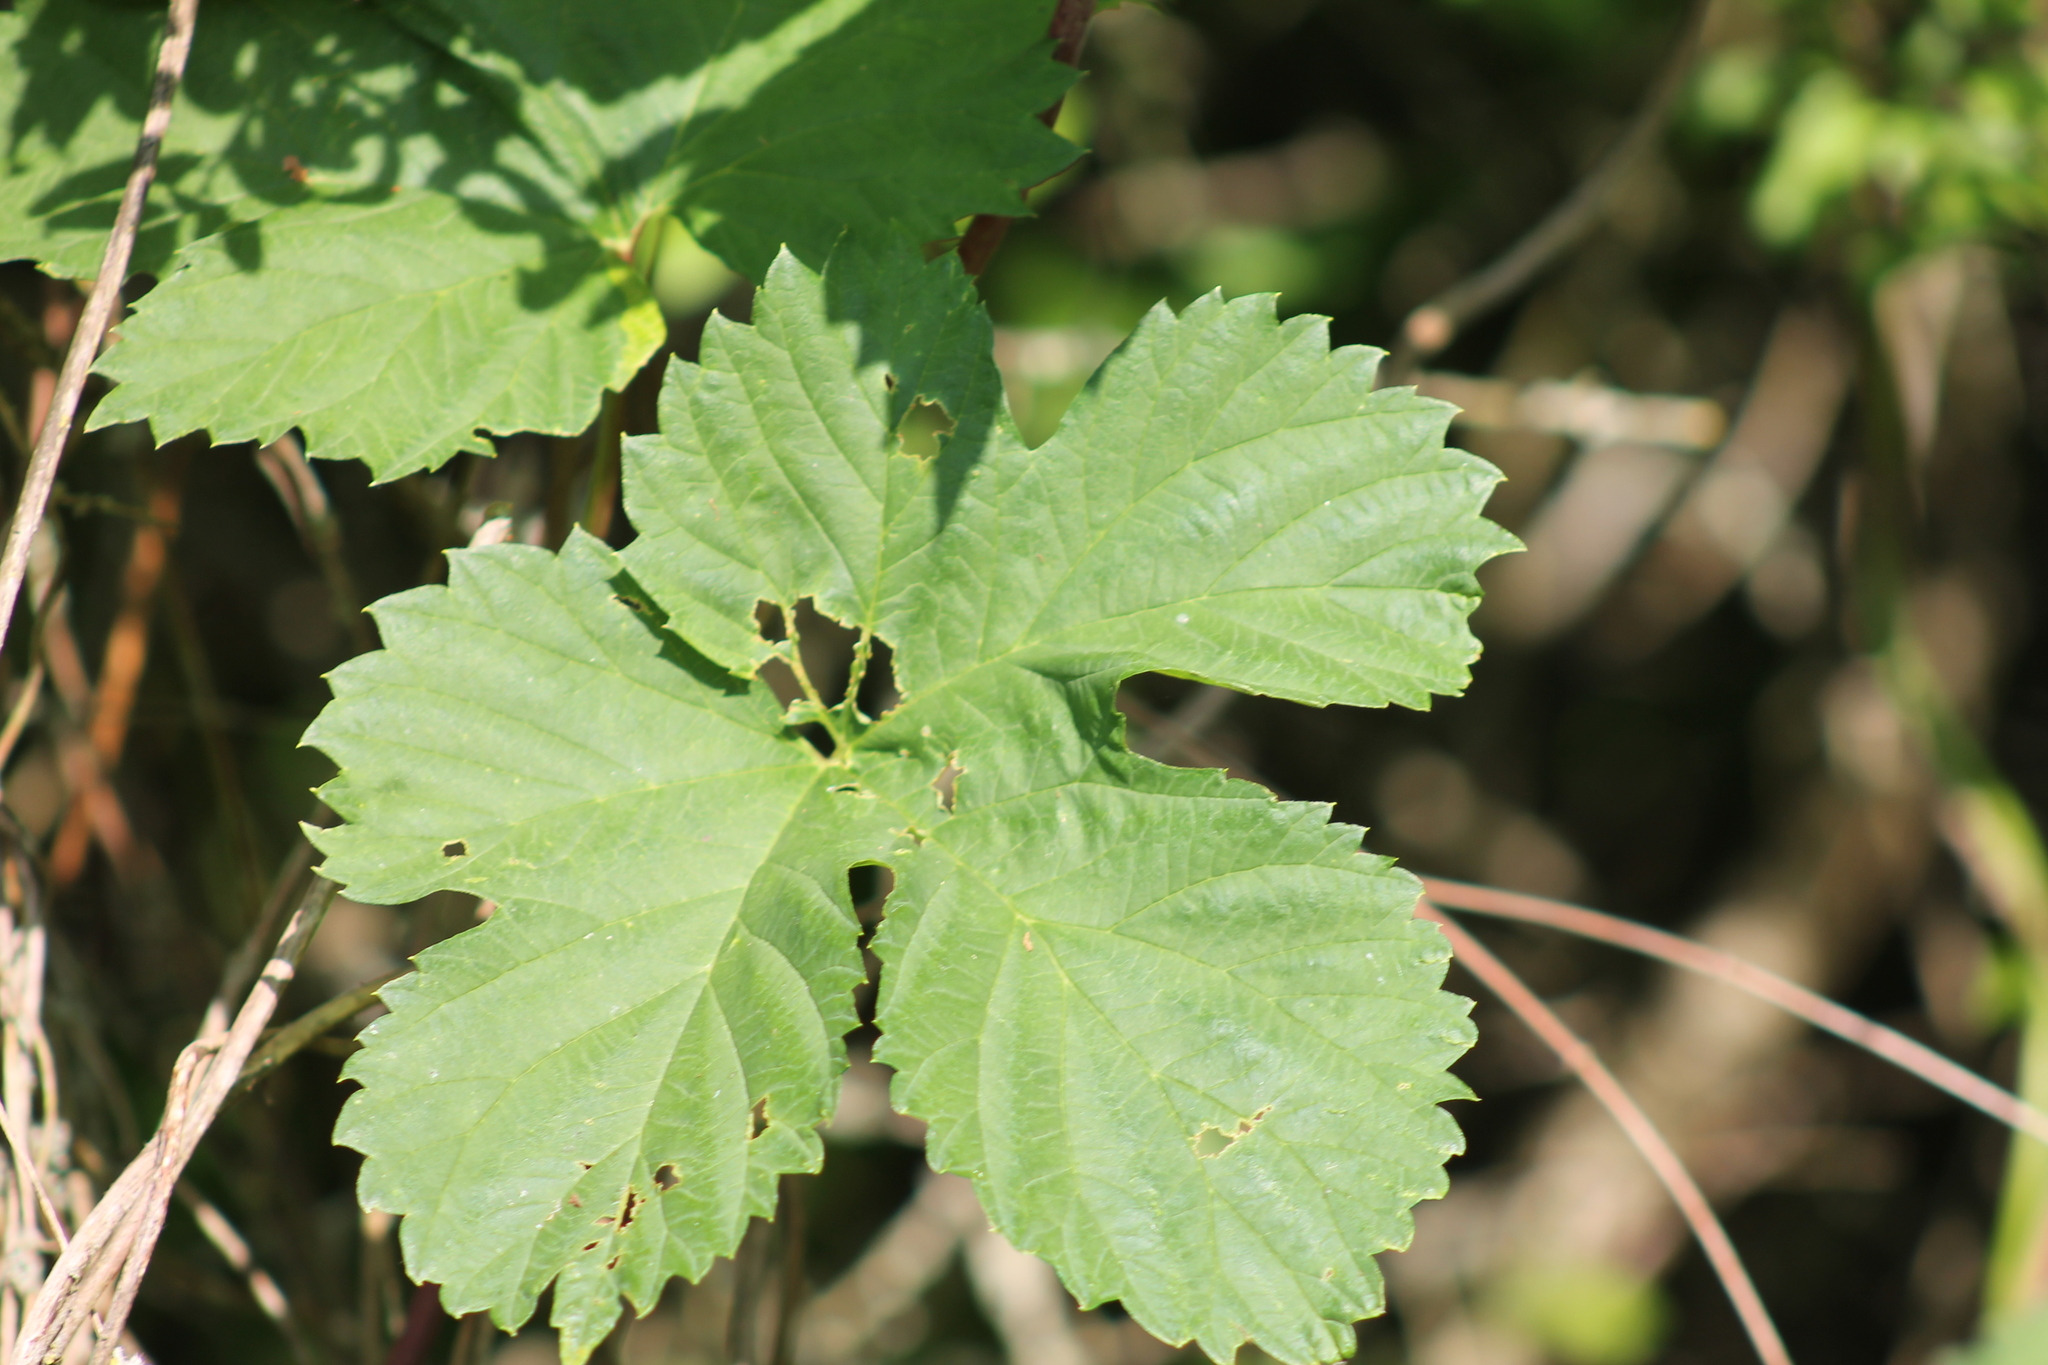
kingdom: Plantae
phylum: Tracheophyta
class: Magnoliopsida
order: Rosales
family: Cannabaceae
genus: Humulus
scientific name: Humulus lupulus
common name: Hop
